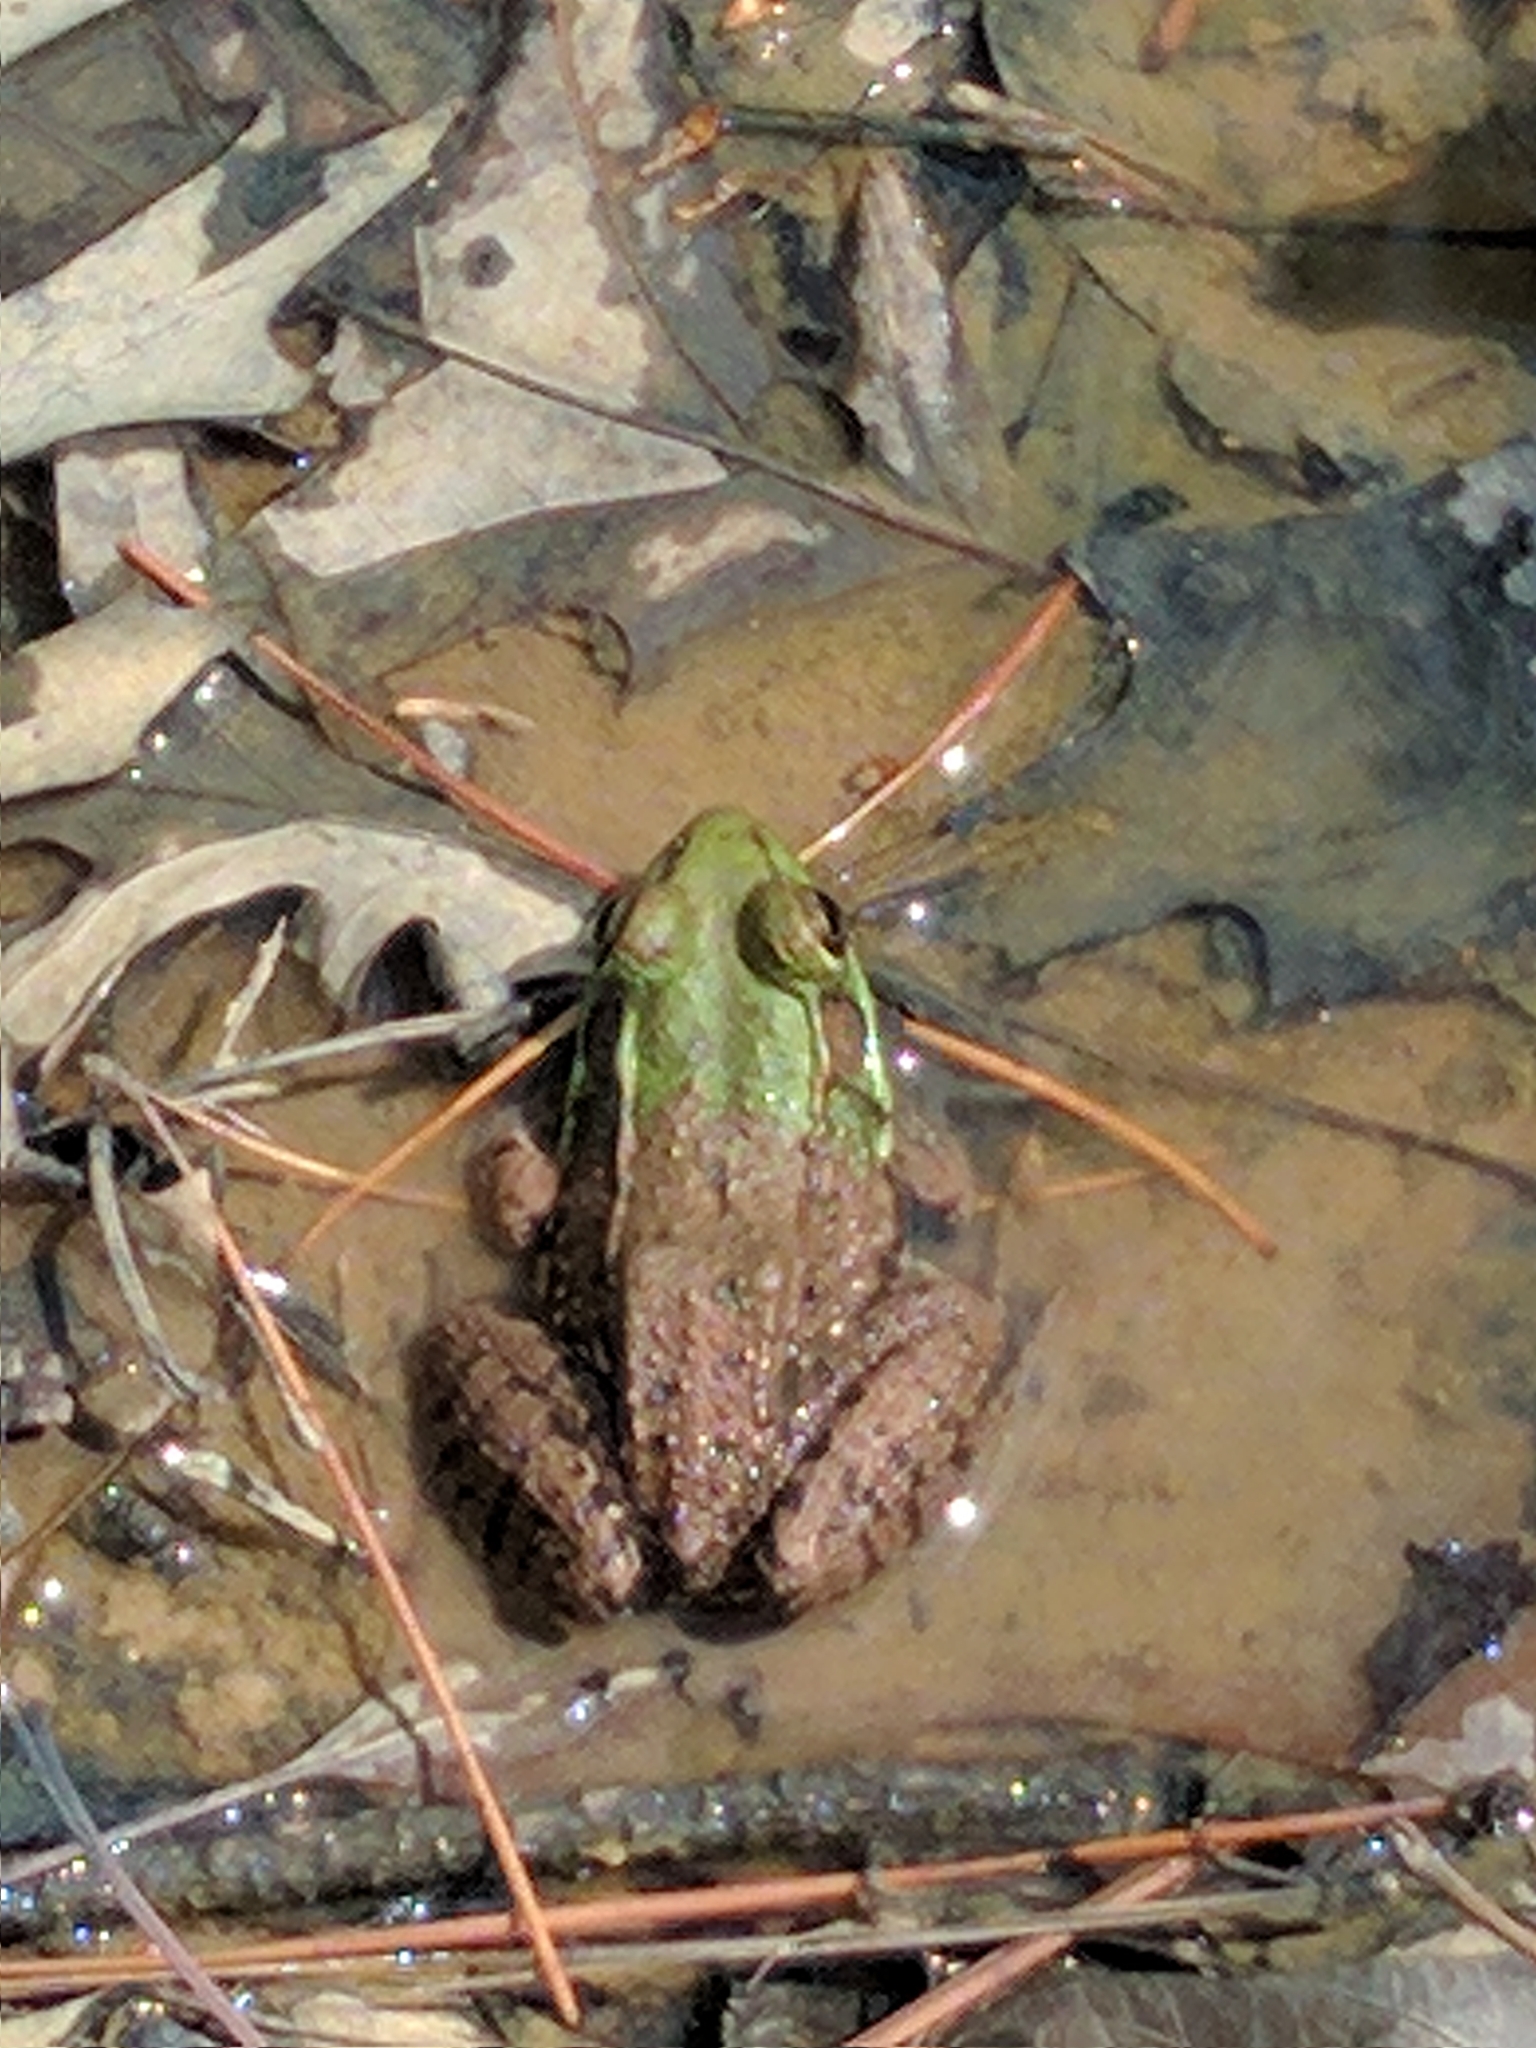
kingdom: Animalia
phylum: Chordata
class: Amphibia
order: Anura
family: Ranidae
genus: Lithobates
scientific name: Lithobates clamitans
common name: Green frog
